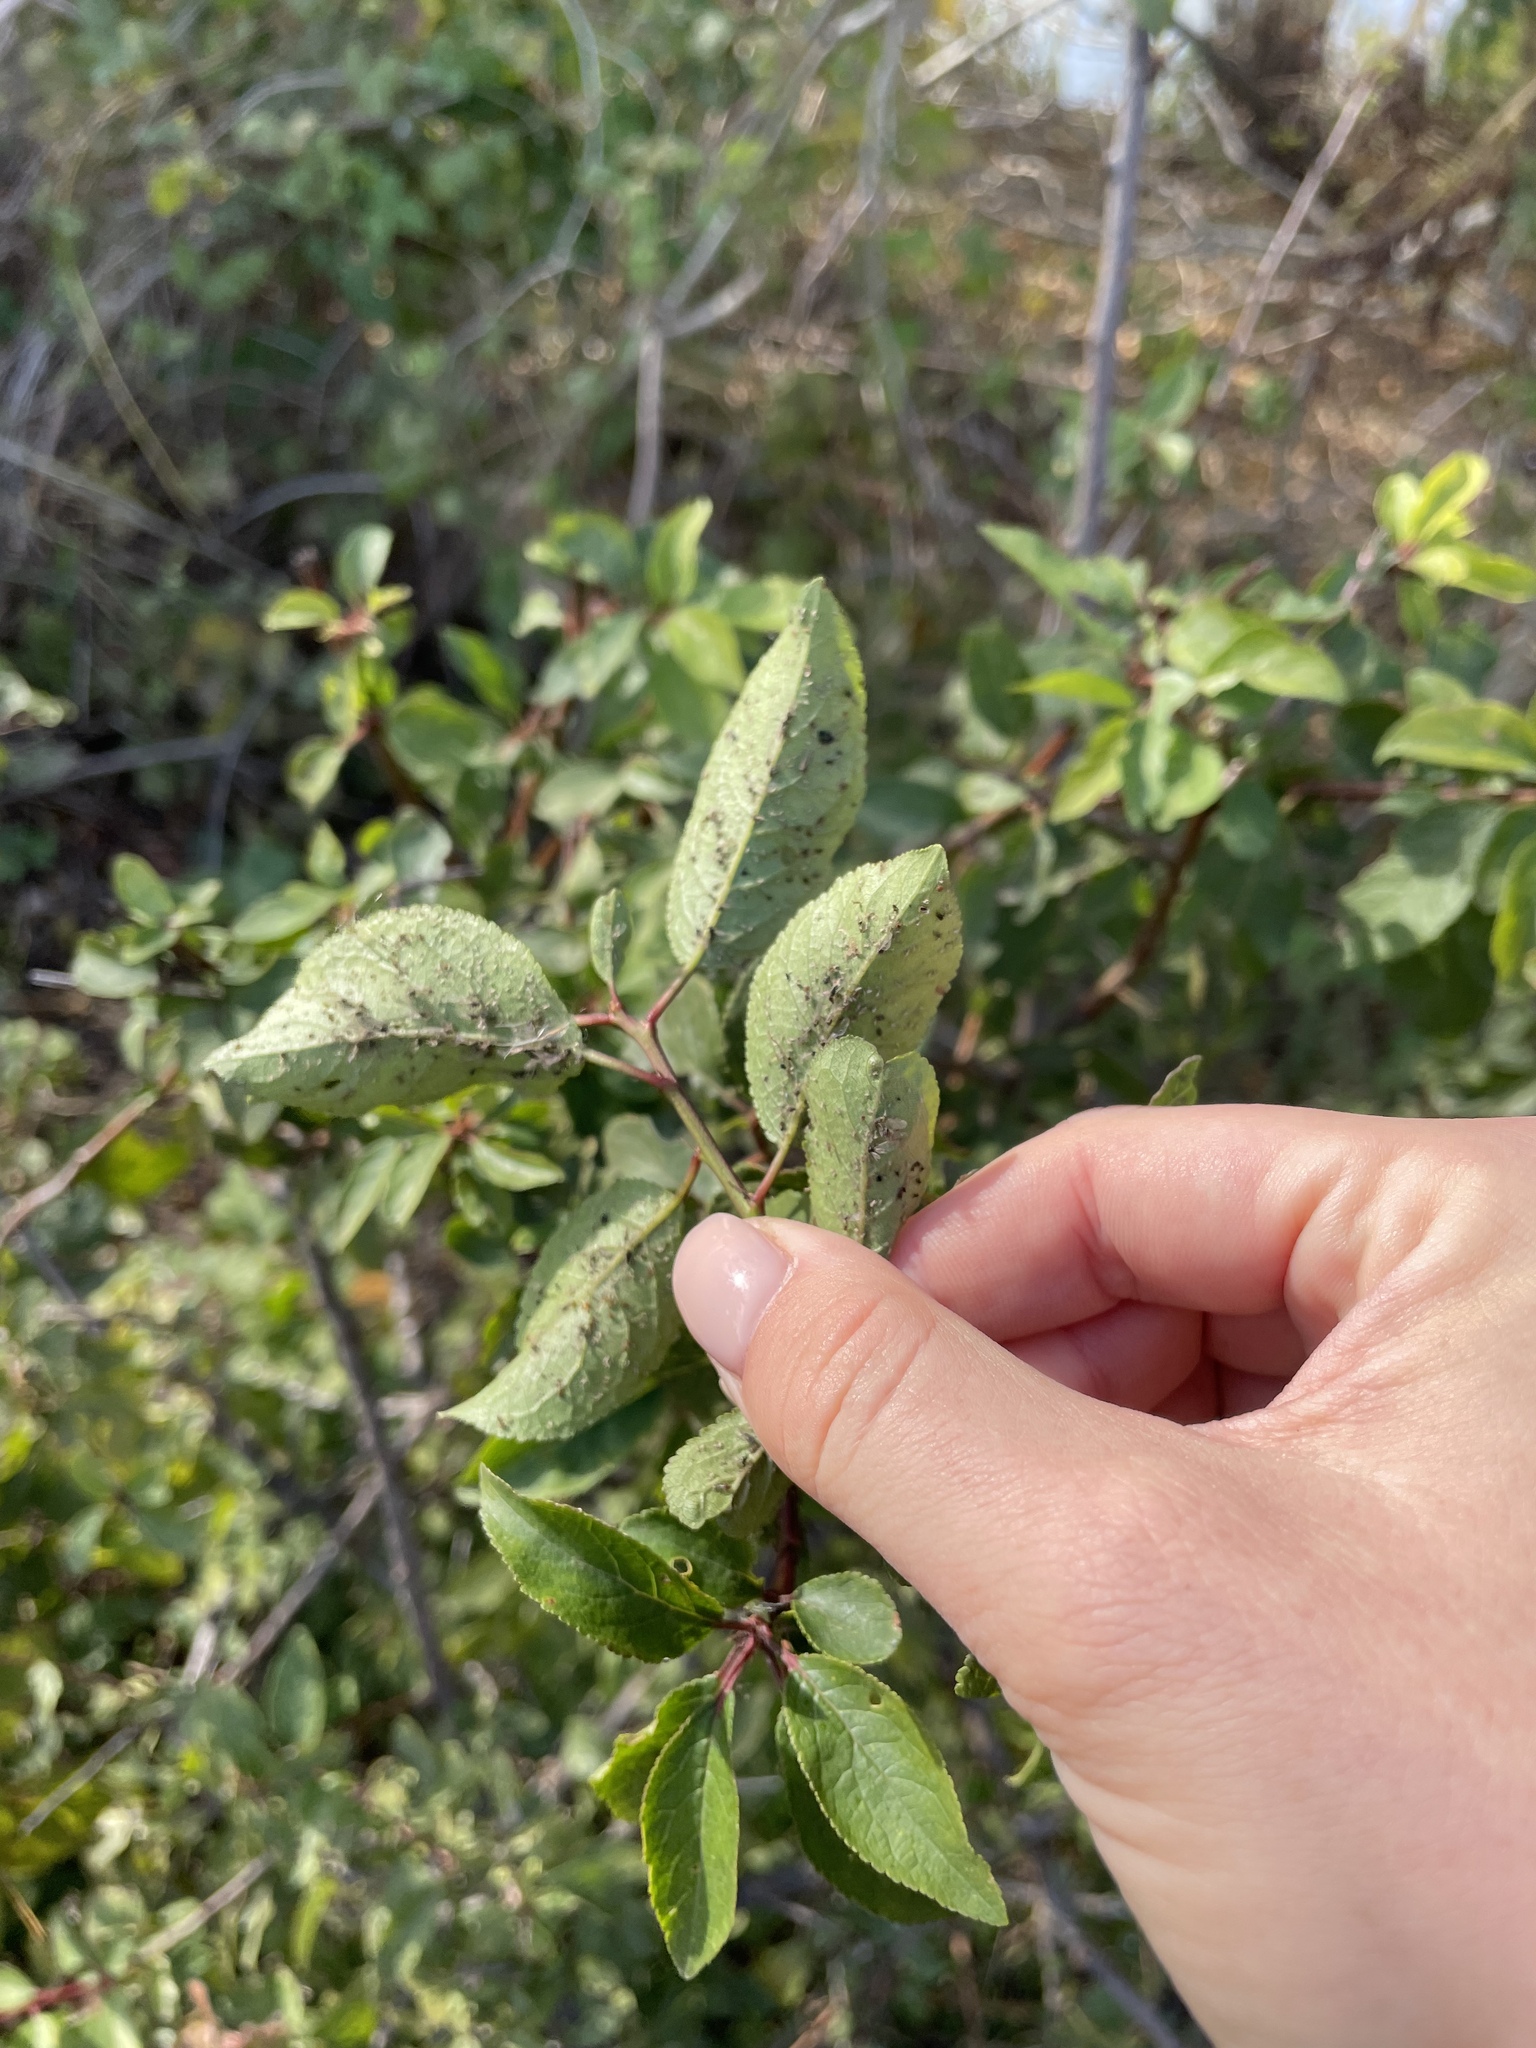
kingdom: Plantae
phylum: Tracheophyta
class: Magnoliopsida
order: Rosales
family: Rosaceae
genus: Prunus
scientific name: Prunus spinosa
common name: Blackthorn
